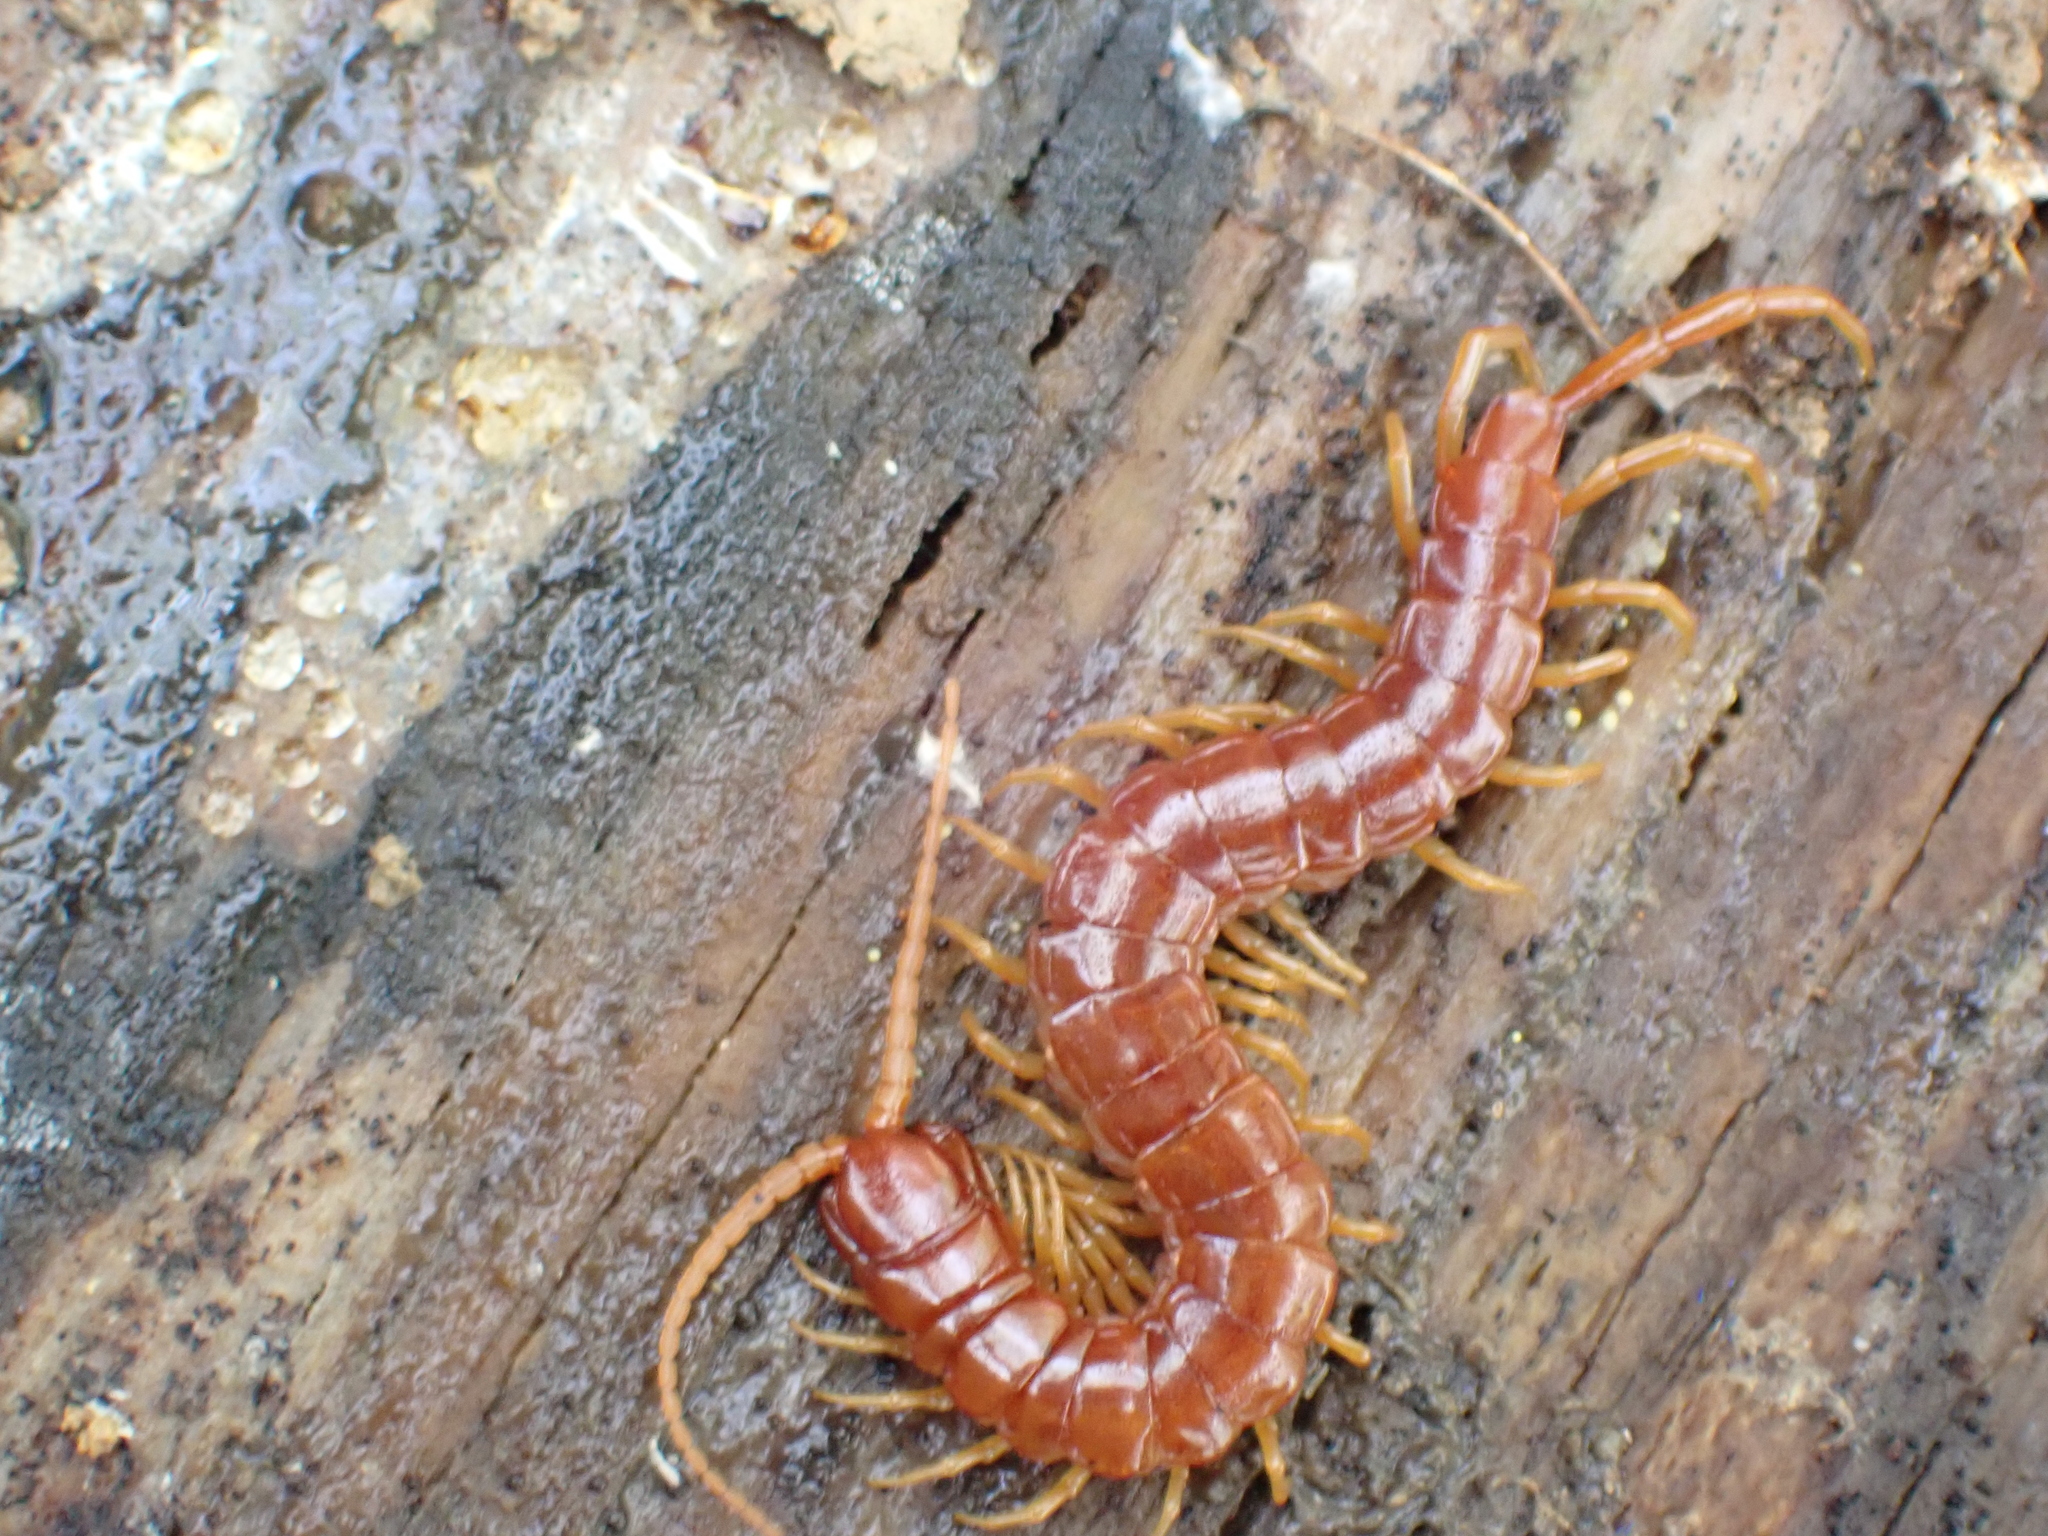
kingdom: Animalia
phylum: Arthropoda
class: Chilopoda
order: Scolopendromorpha
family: Scolopocryptopidae
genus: Scolopocryptops
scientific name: Scolopocryptops sexspinosus
